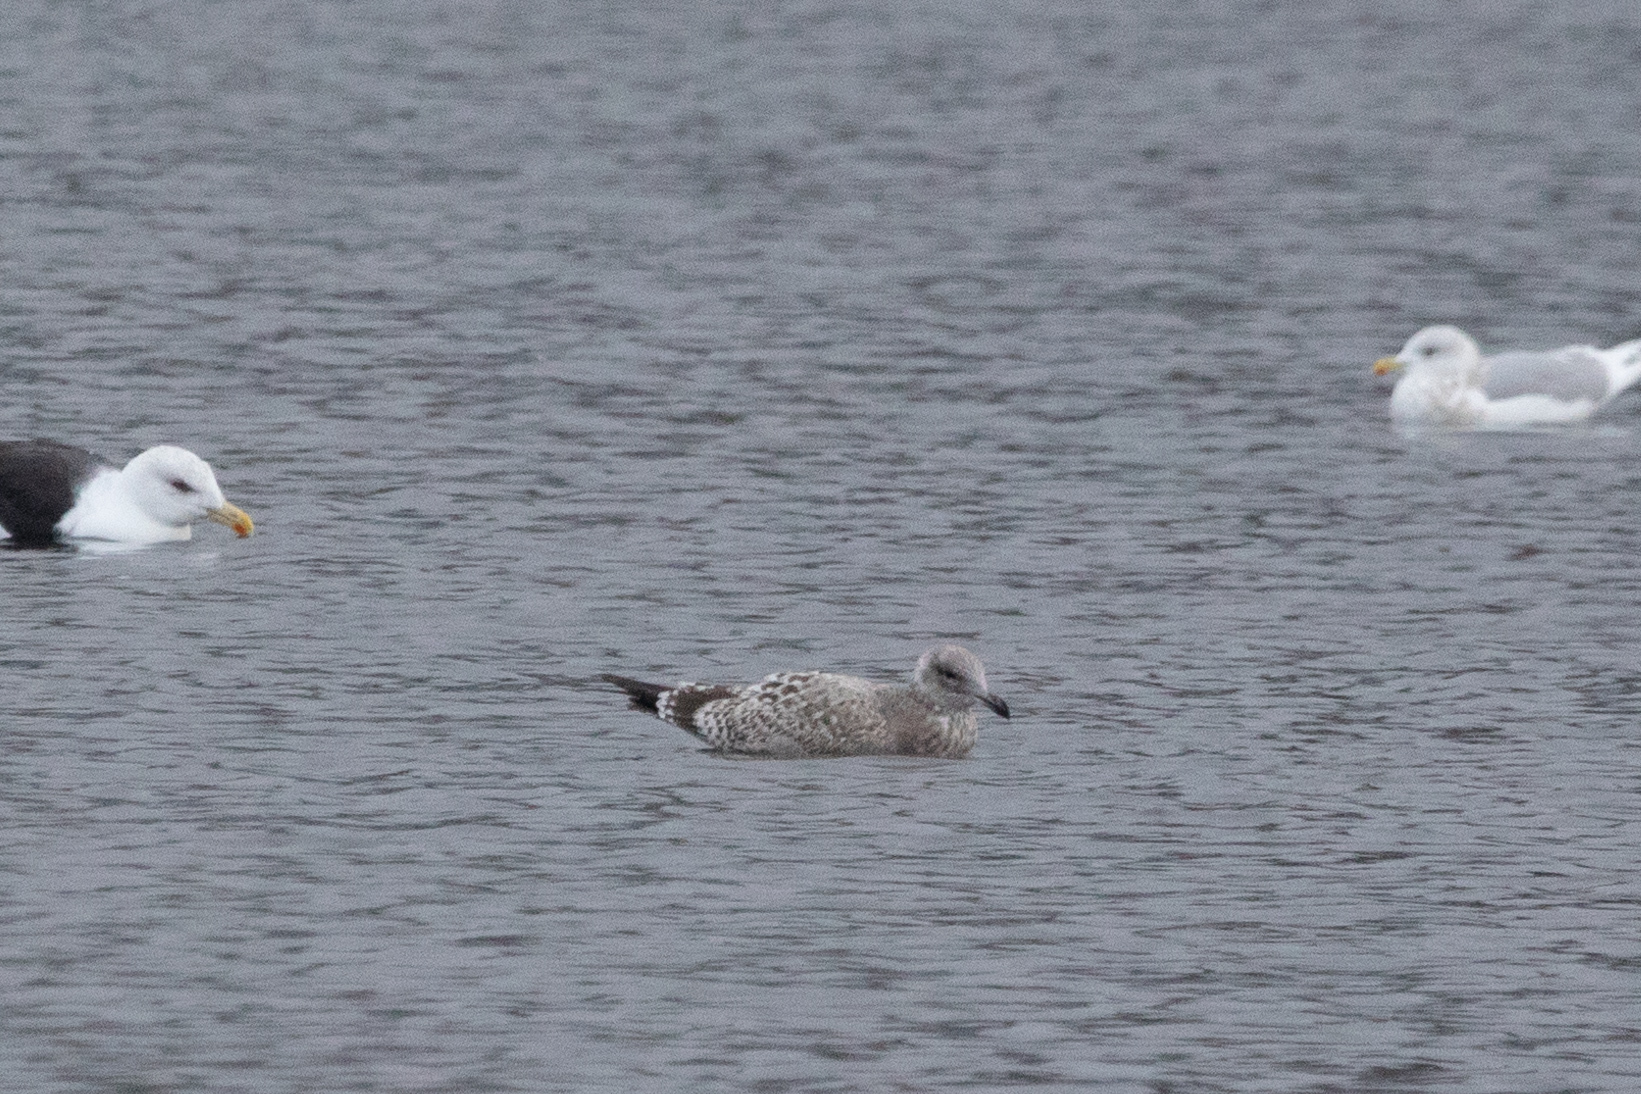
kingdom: Animalia
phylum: Chordata
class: Aves
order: Charadriiformes
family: Laridae
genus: Larus
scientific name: Larus argentatus
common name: Herring gull
